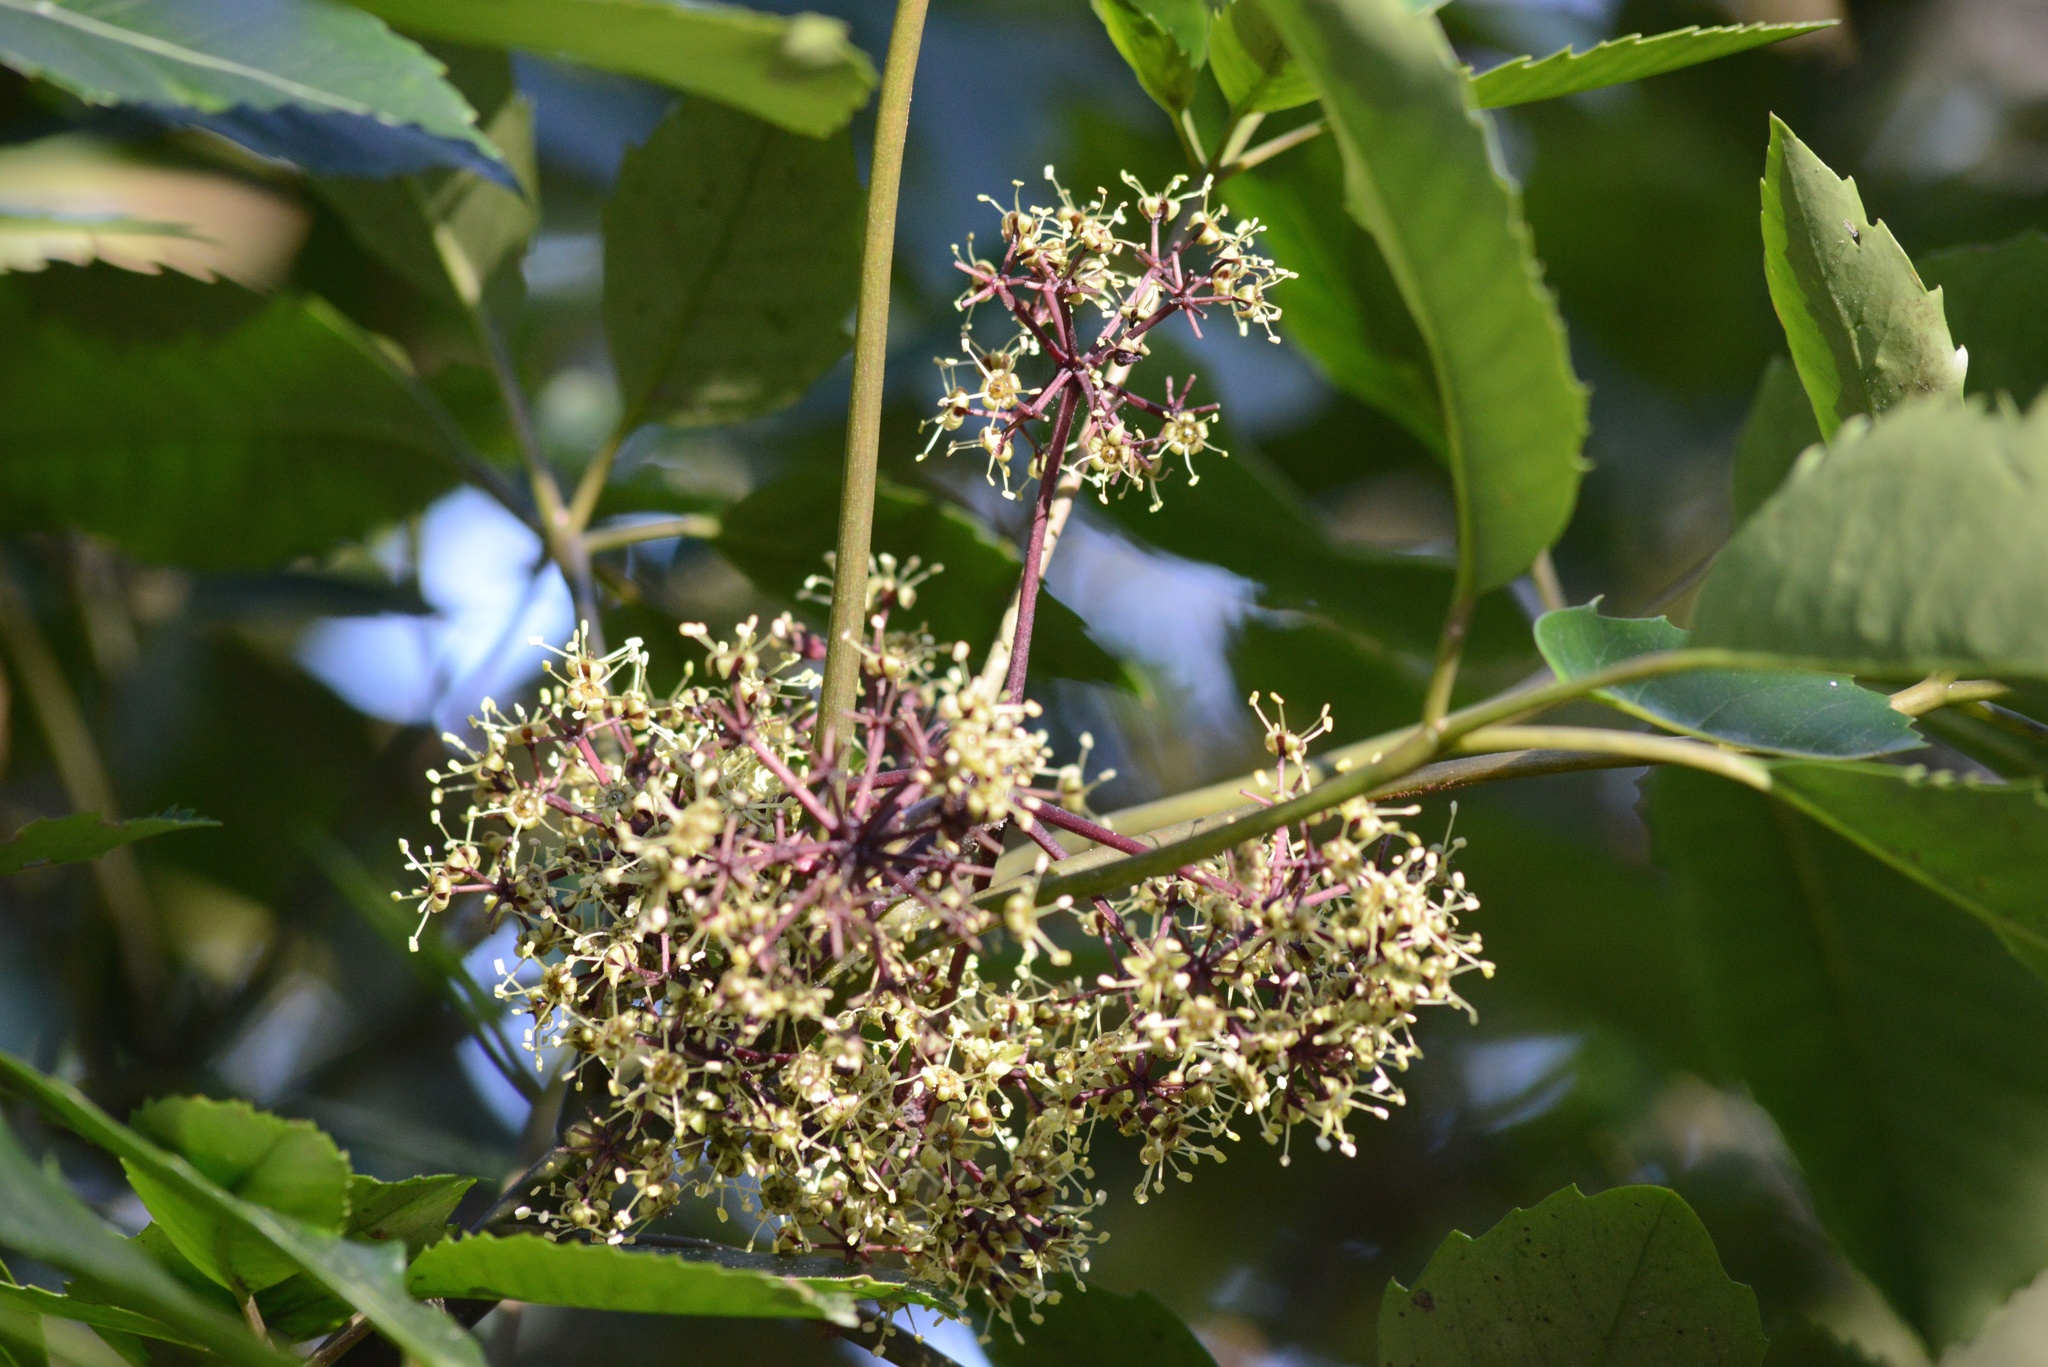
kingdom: Plantae
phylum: Tracheophyta
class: Magnoliopsida
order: Apiales
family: Araliaceae
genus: Neopanax
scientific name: Neopanax arboreus
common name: Five-fingers
